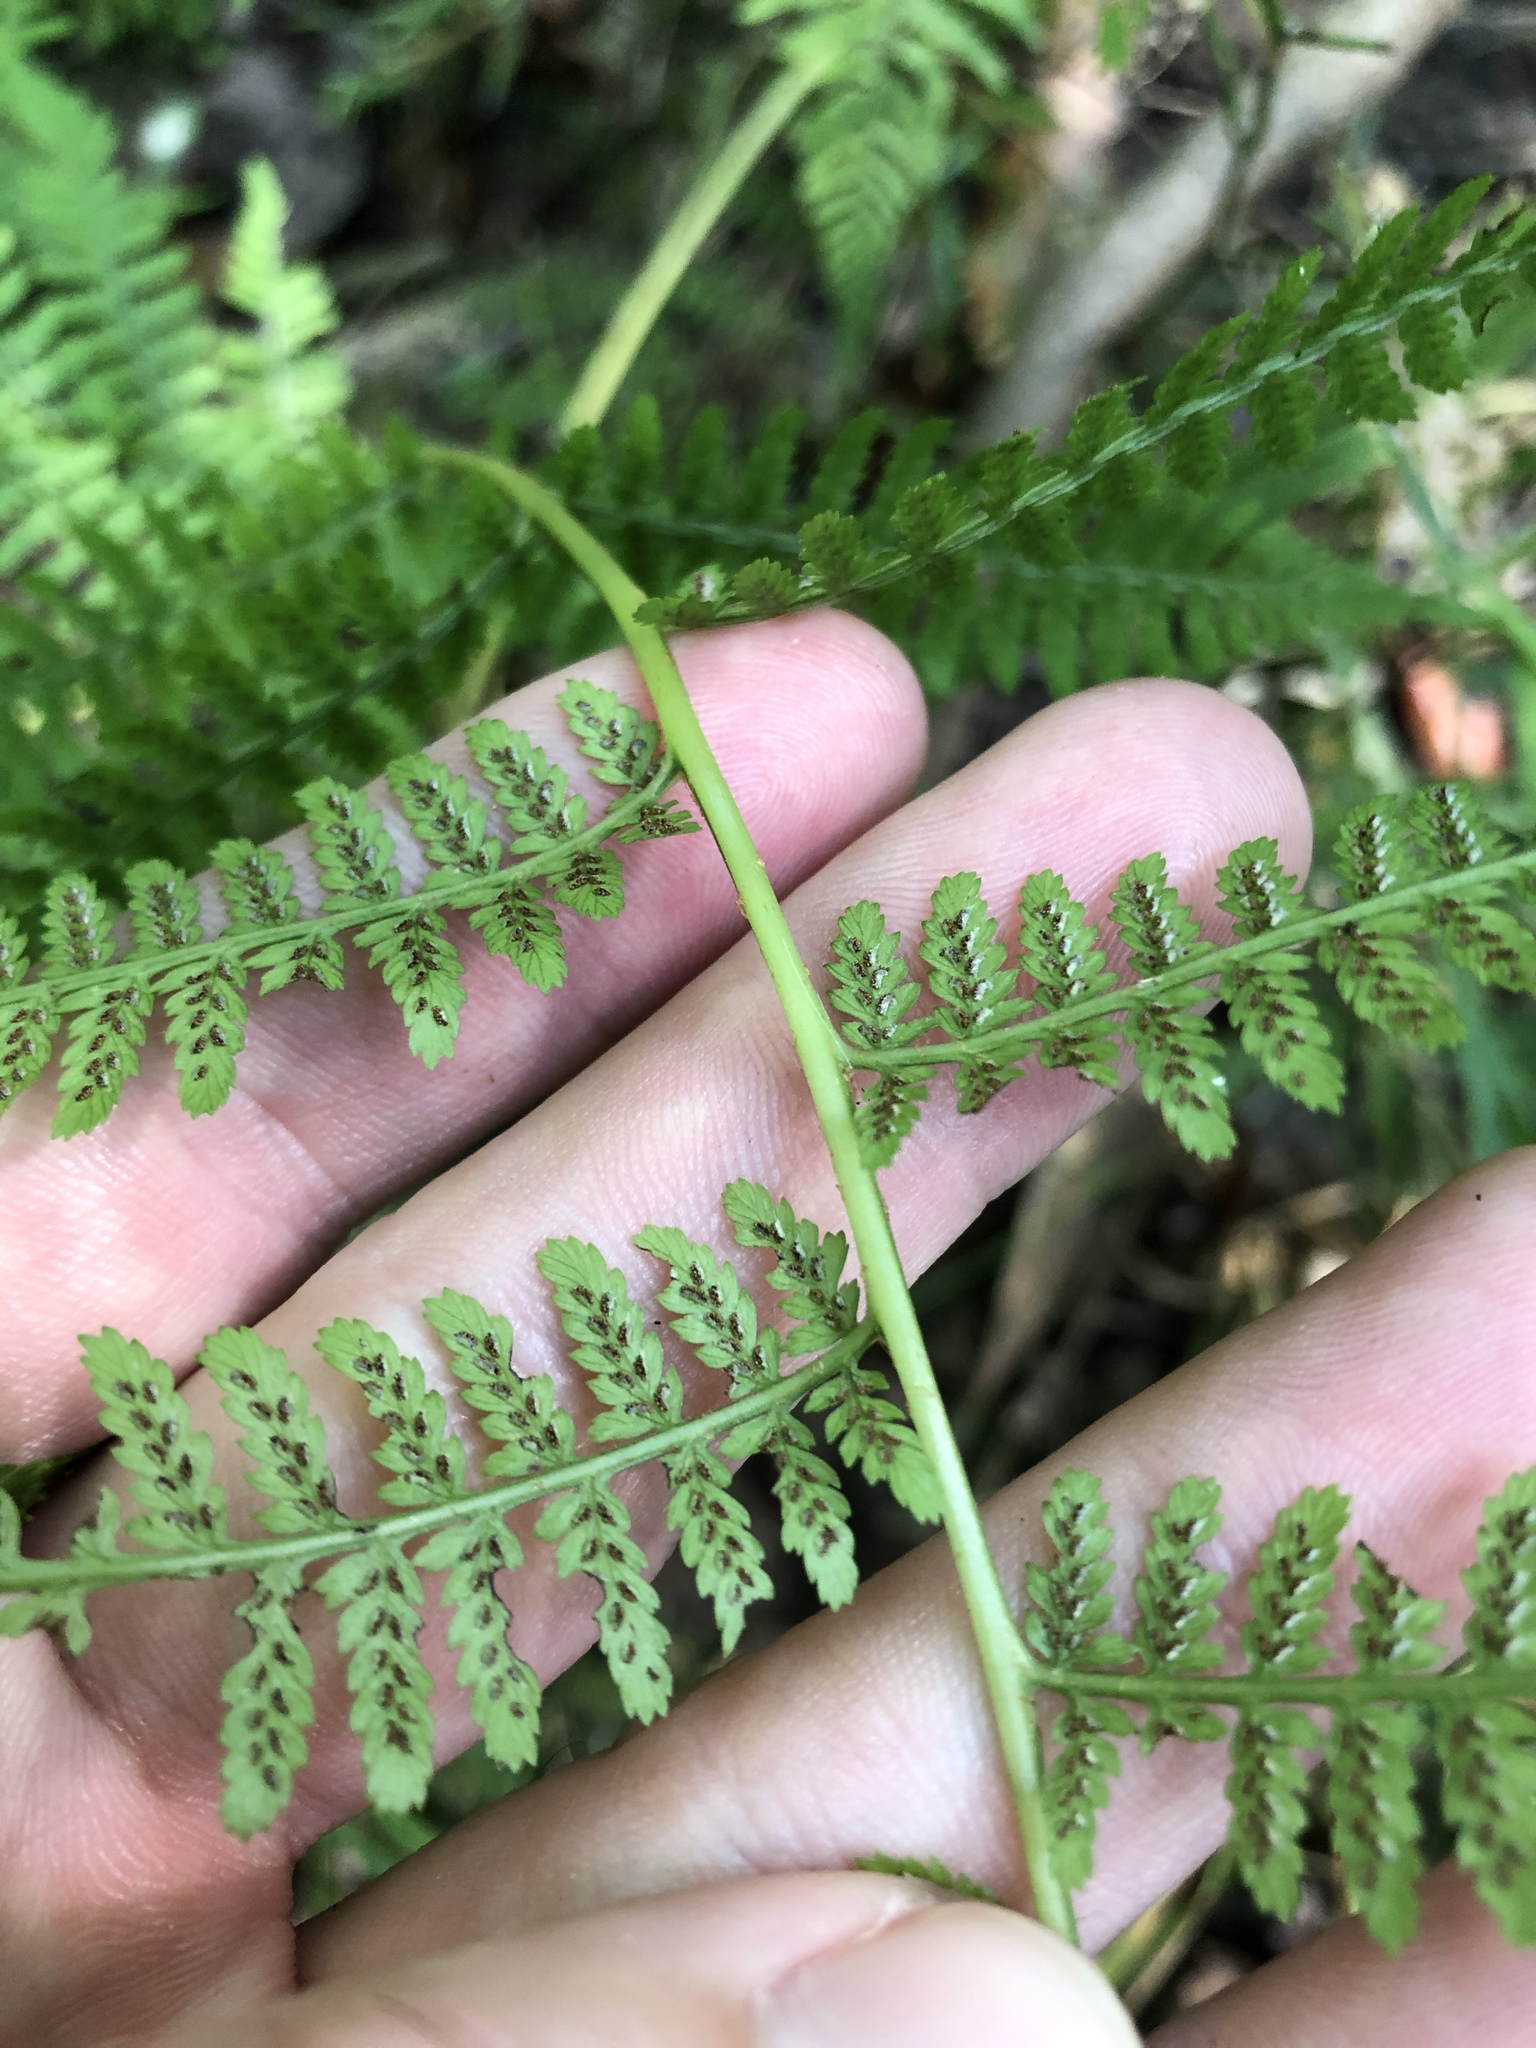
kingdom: Plantae
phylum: Tracheophyta
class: Polypodiopsida
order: Polypodiales
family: Athyriaceae
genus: Athyrium
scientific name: Athyrium asplenioides
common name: Southern lady fern
